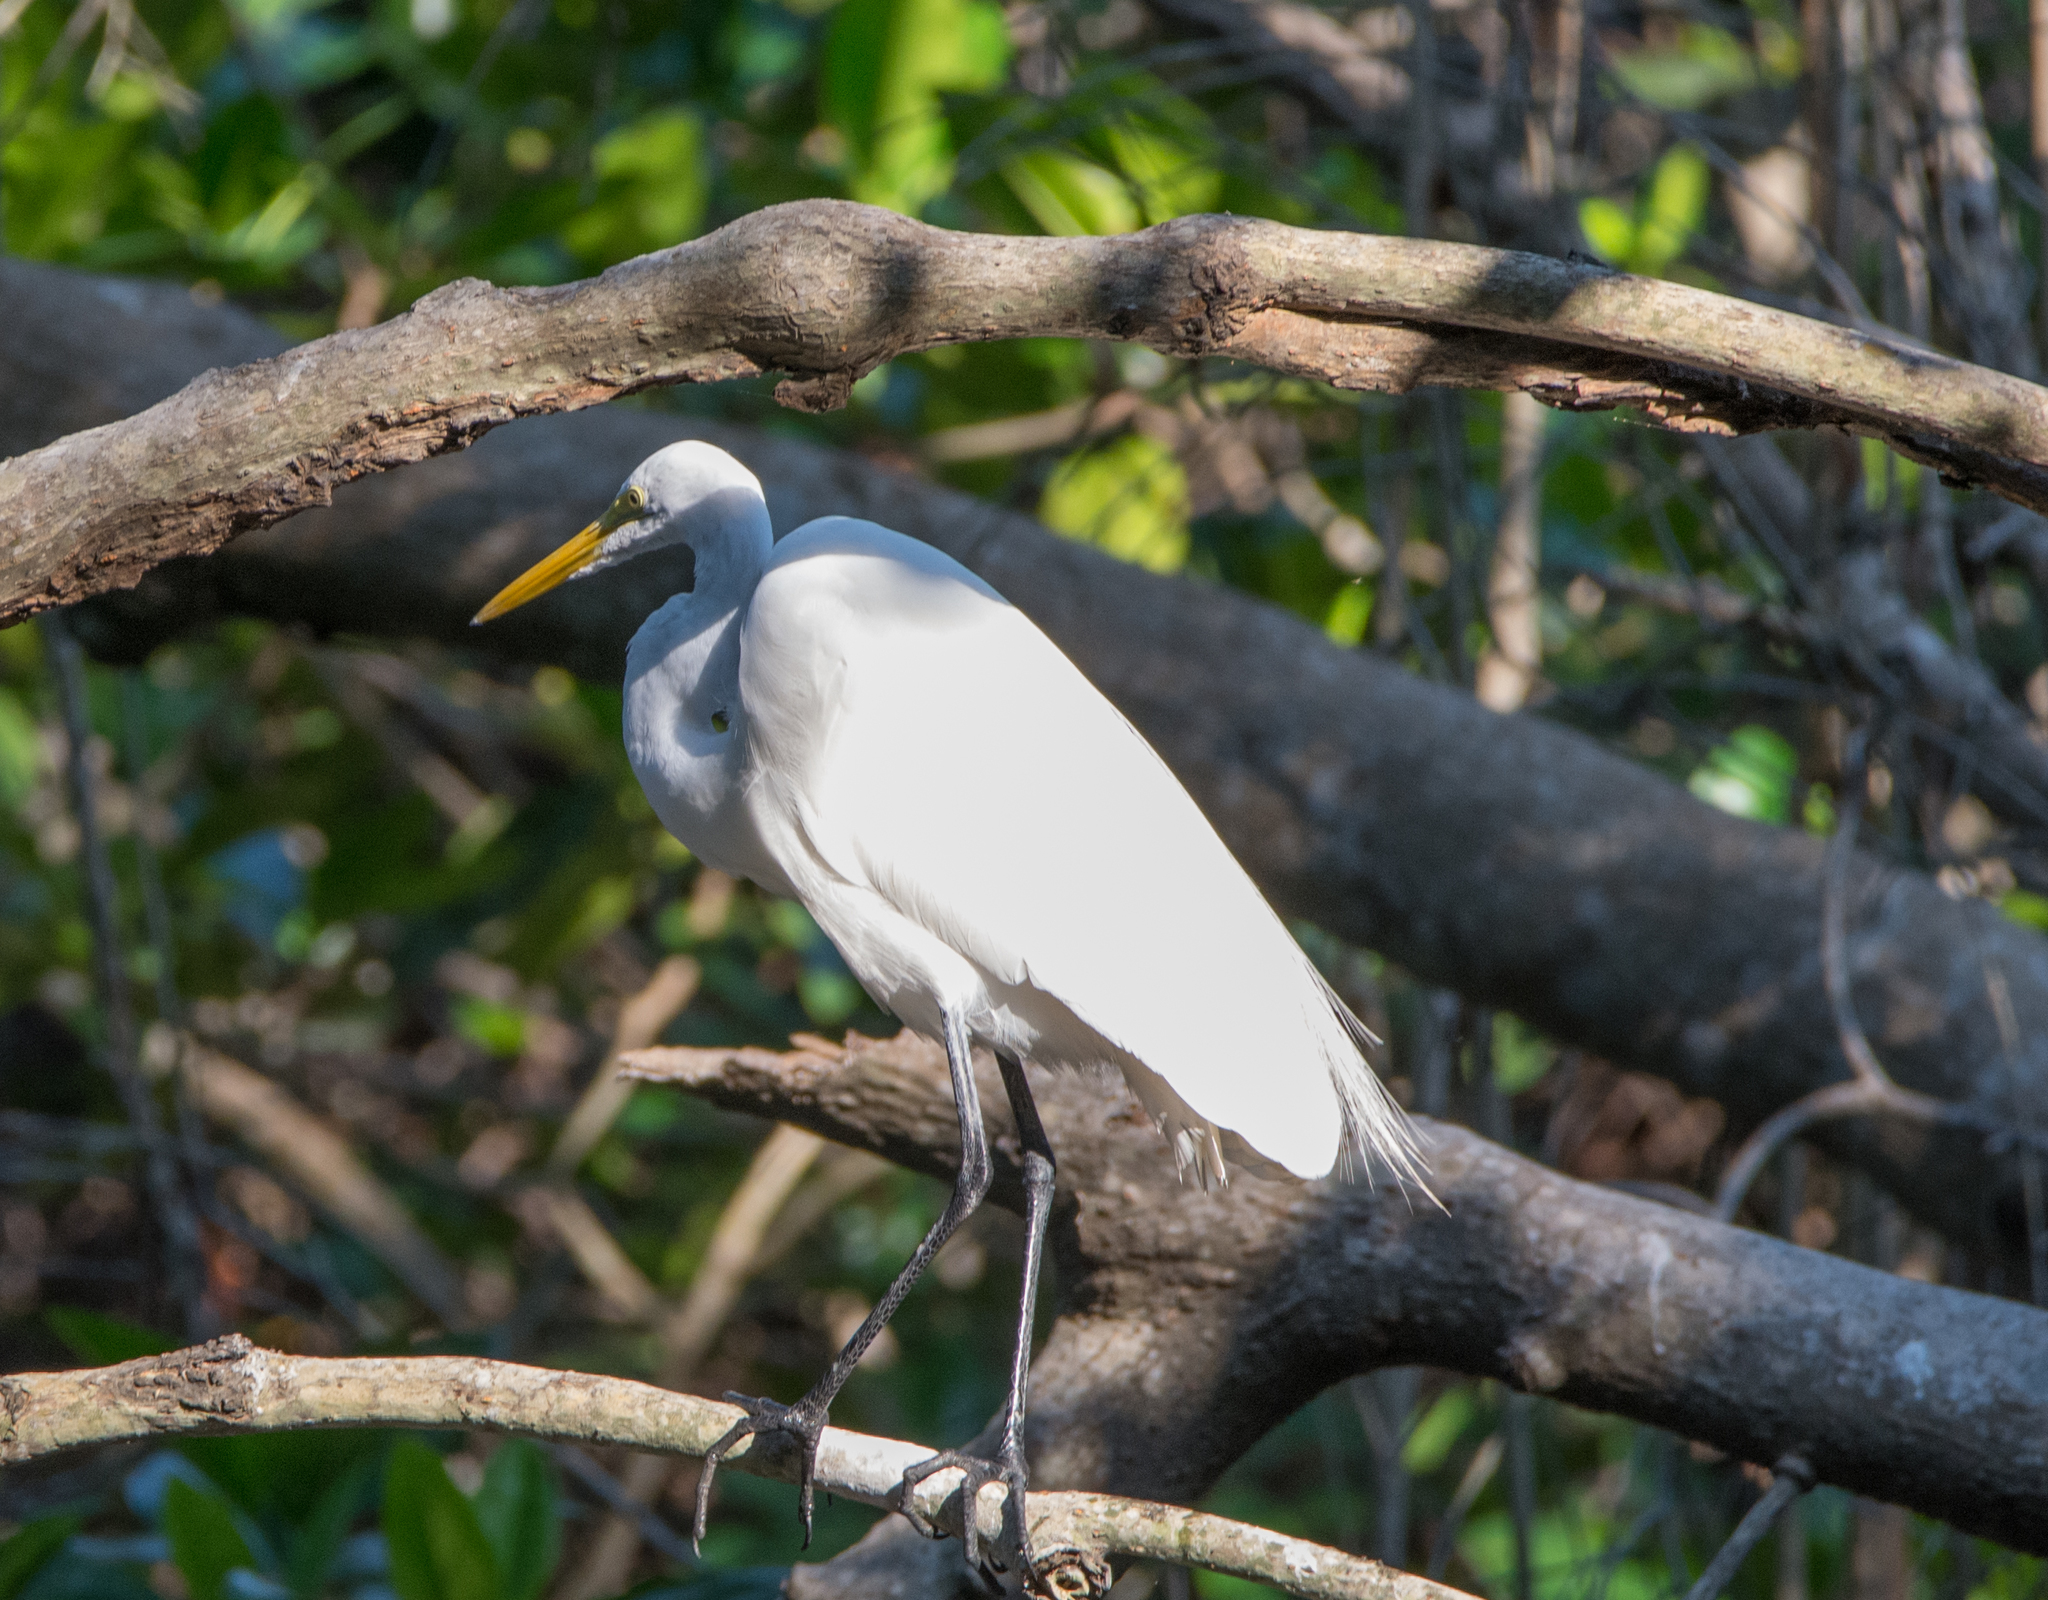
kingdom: Animalia
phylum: Chordata
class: Aves
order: Pelecaniformes
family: Ardeidae
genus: Ardea
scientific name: Ardea alba
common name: Great egret
